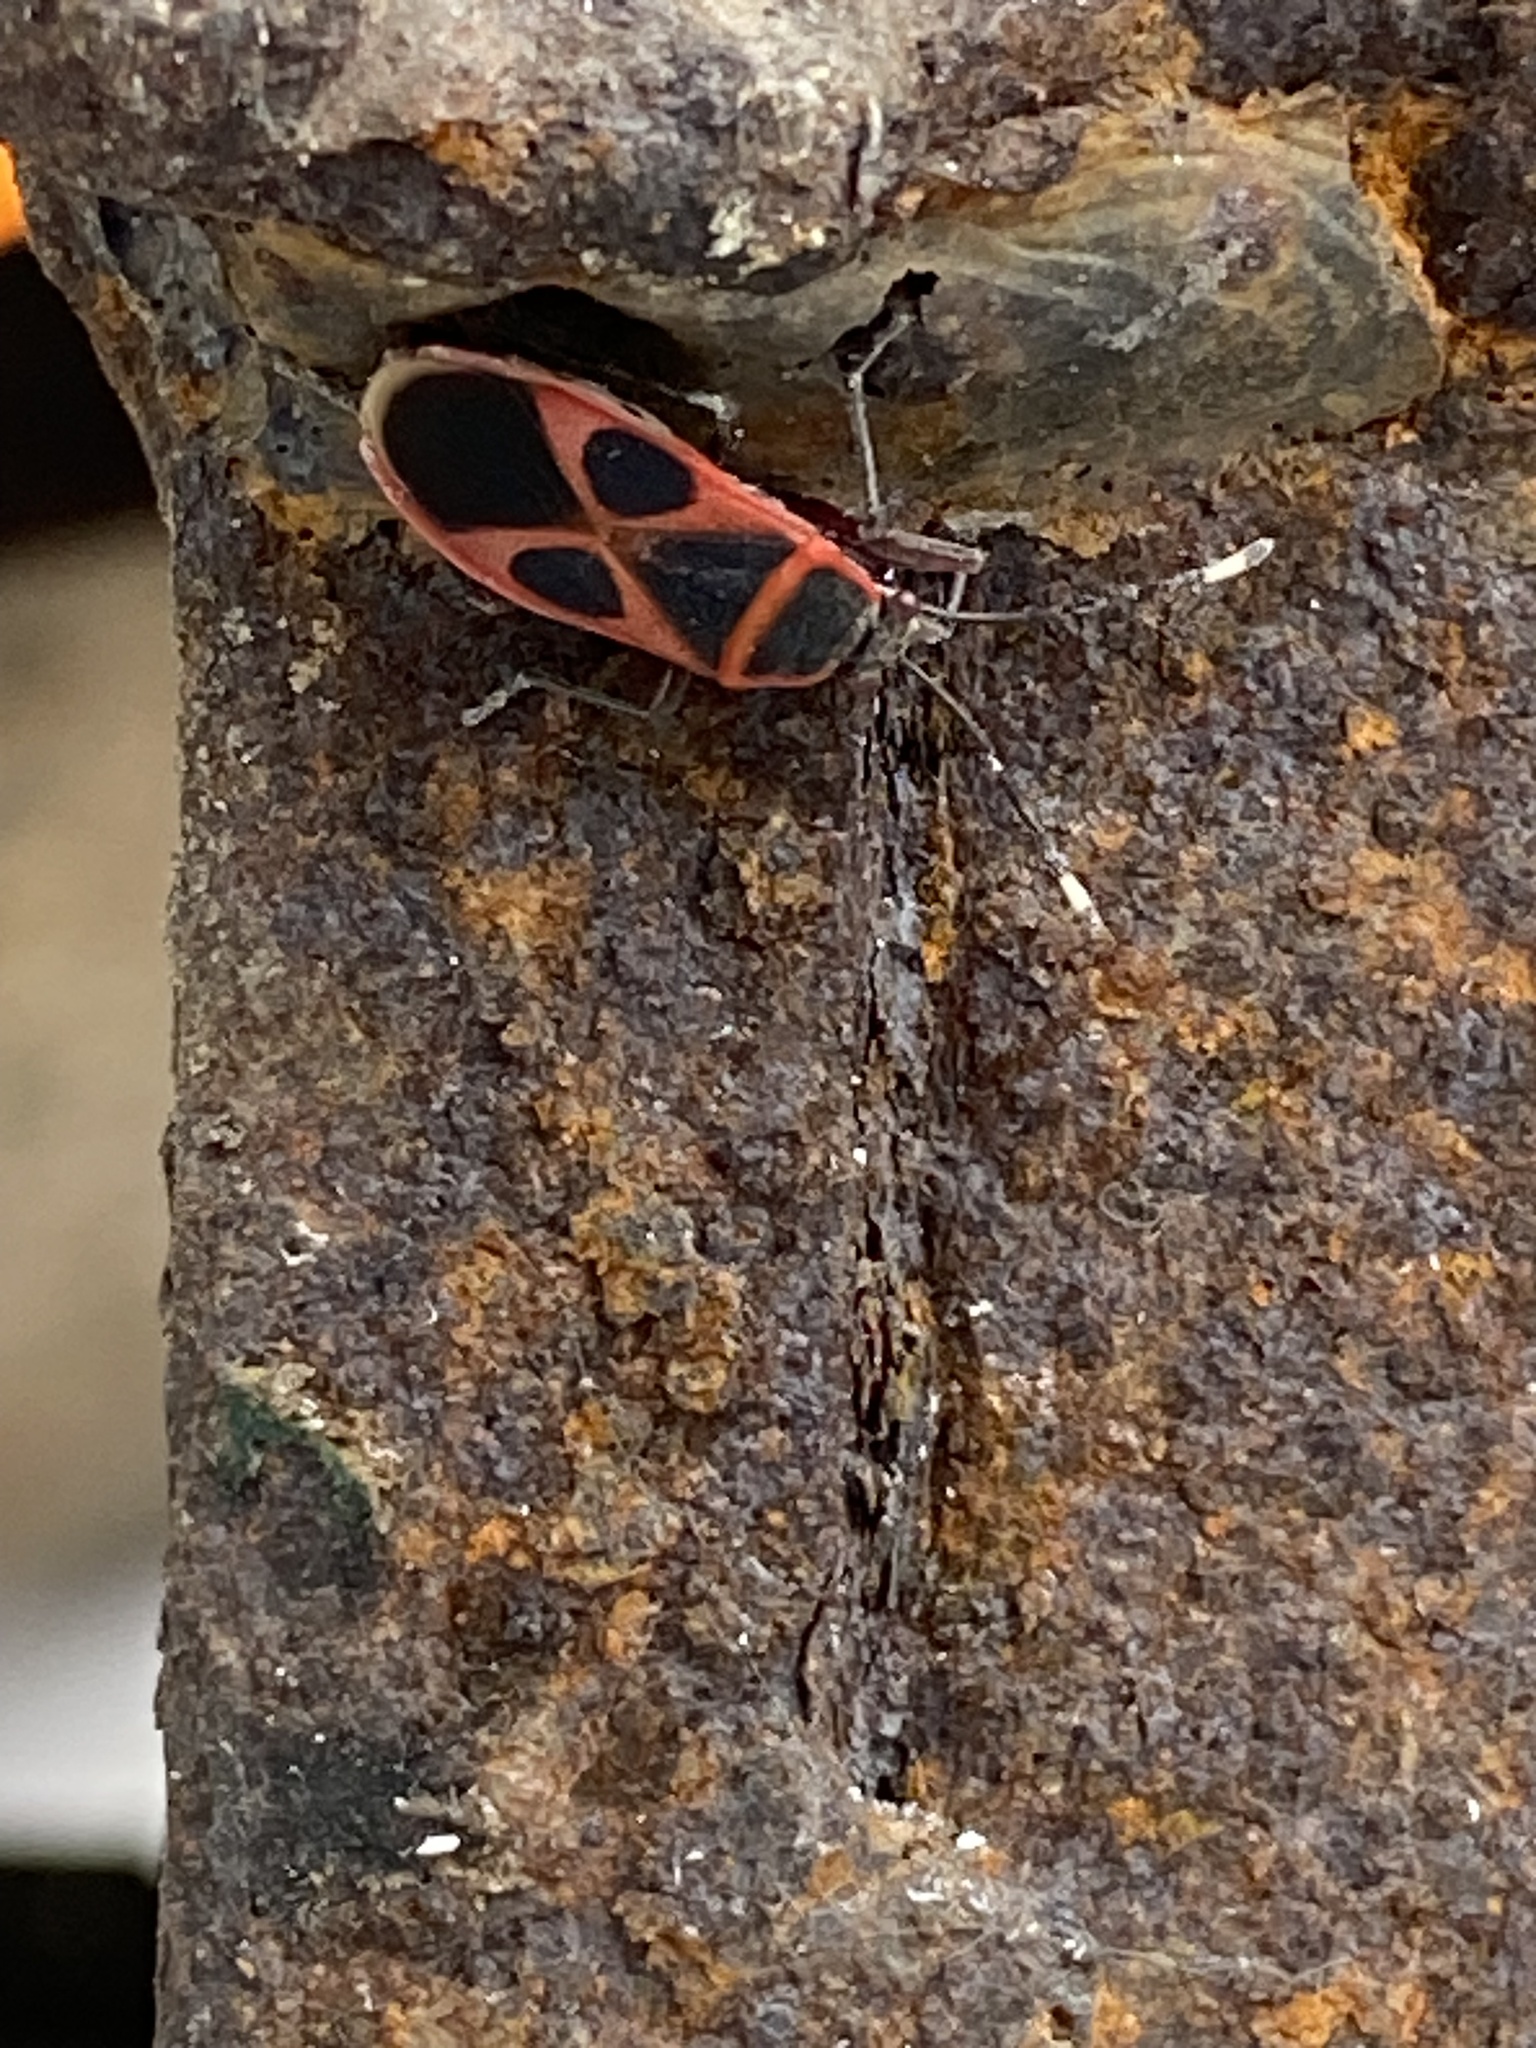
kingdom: Animalia
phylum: Arthropoda
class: Insecta
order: Hemiptera
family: Pyrrhocoridae
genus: Euscopus
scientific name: Euscopus rufipes
